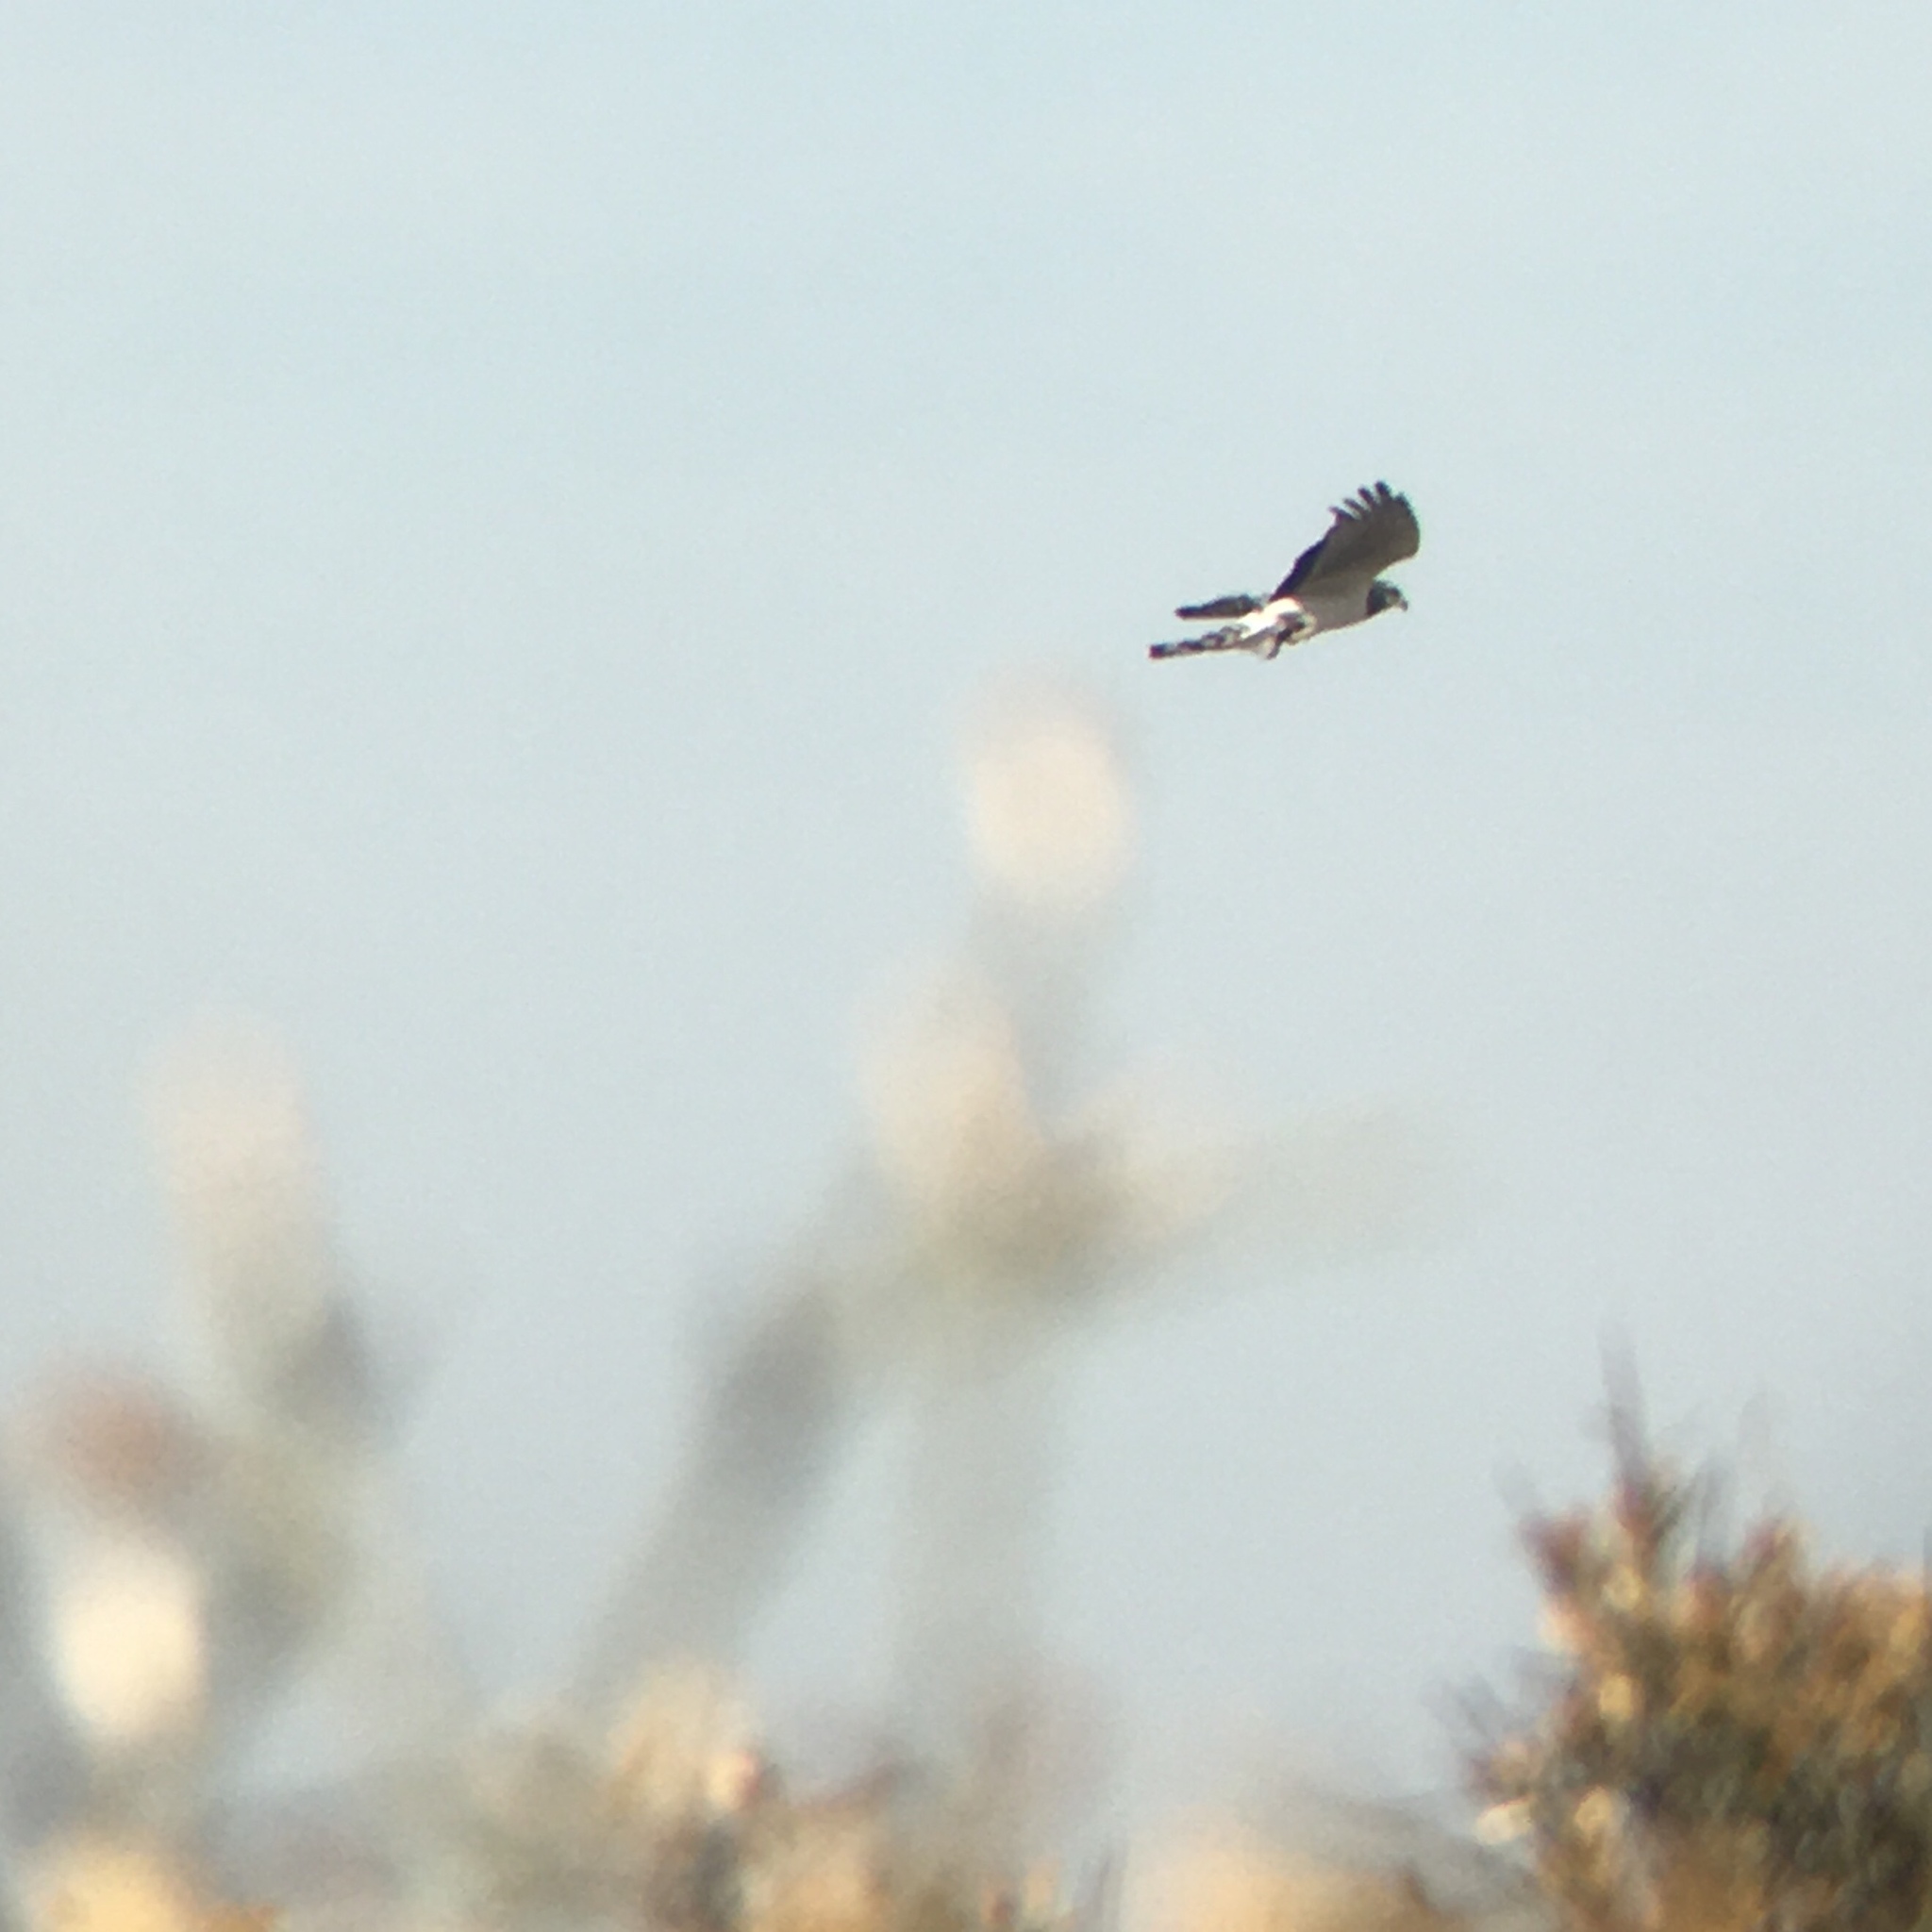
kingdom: Animalia
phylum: Chordata
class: Aves
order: Accipitriformes
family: Accipitridae
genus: Circus
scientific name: Circus buffoni
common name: Long-winged harrier
